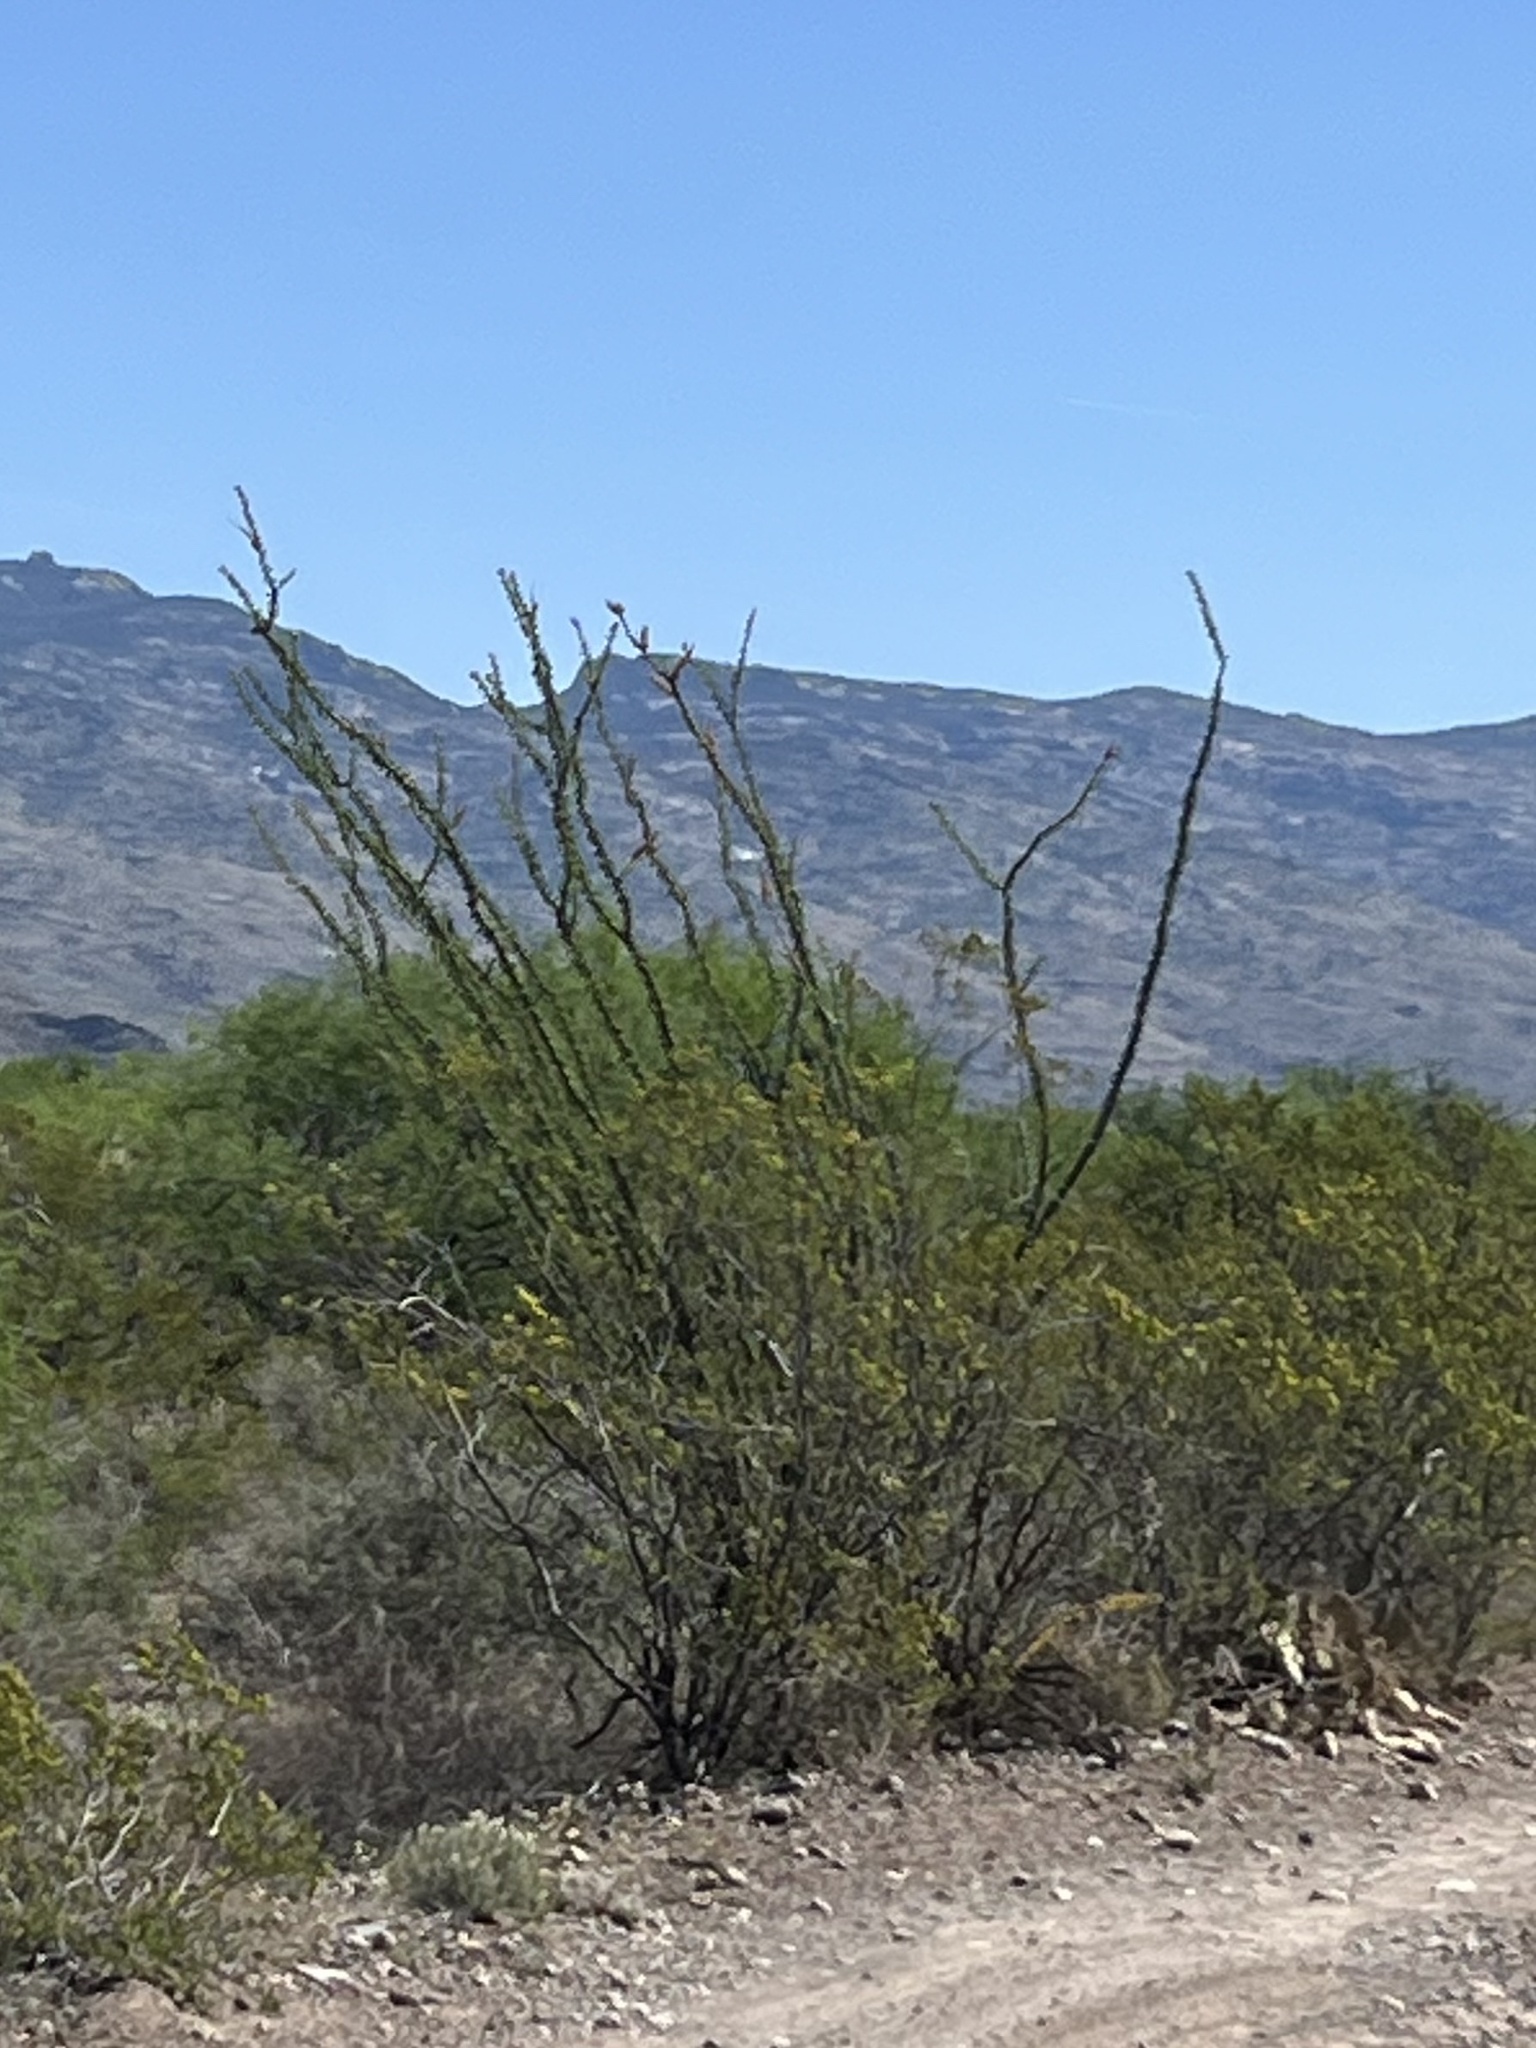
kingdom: Plantae
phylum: Tracheophyta
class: Magnoliopsida
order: Ericales
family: Fouquieriaceae
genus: Fouquieria
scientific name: Fouquieria splendens
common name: Vine-cactus
